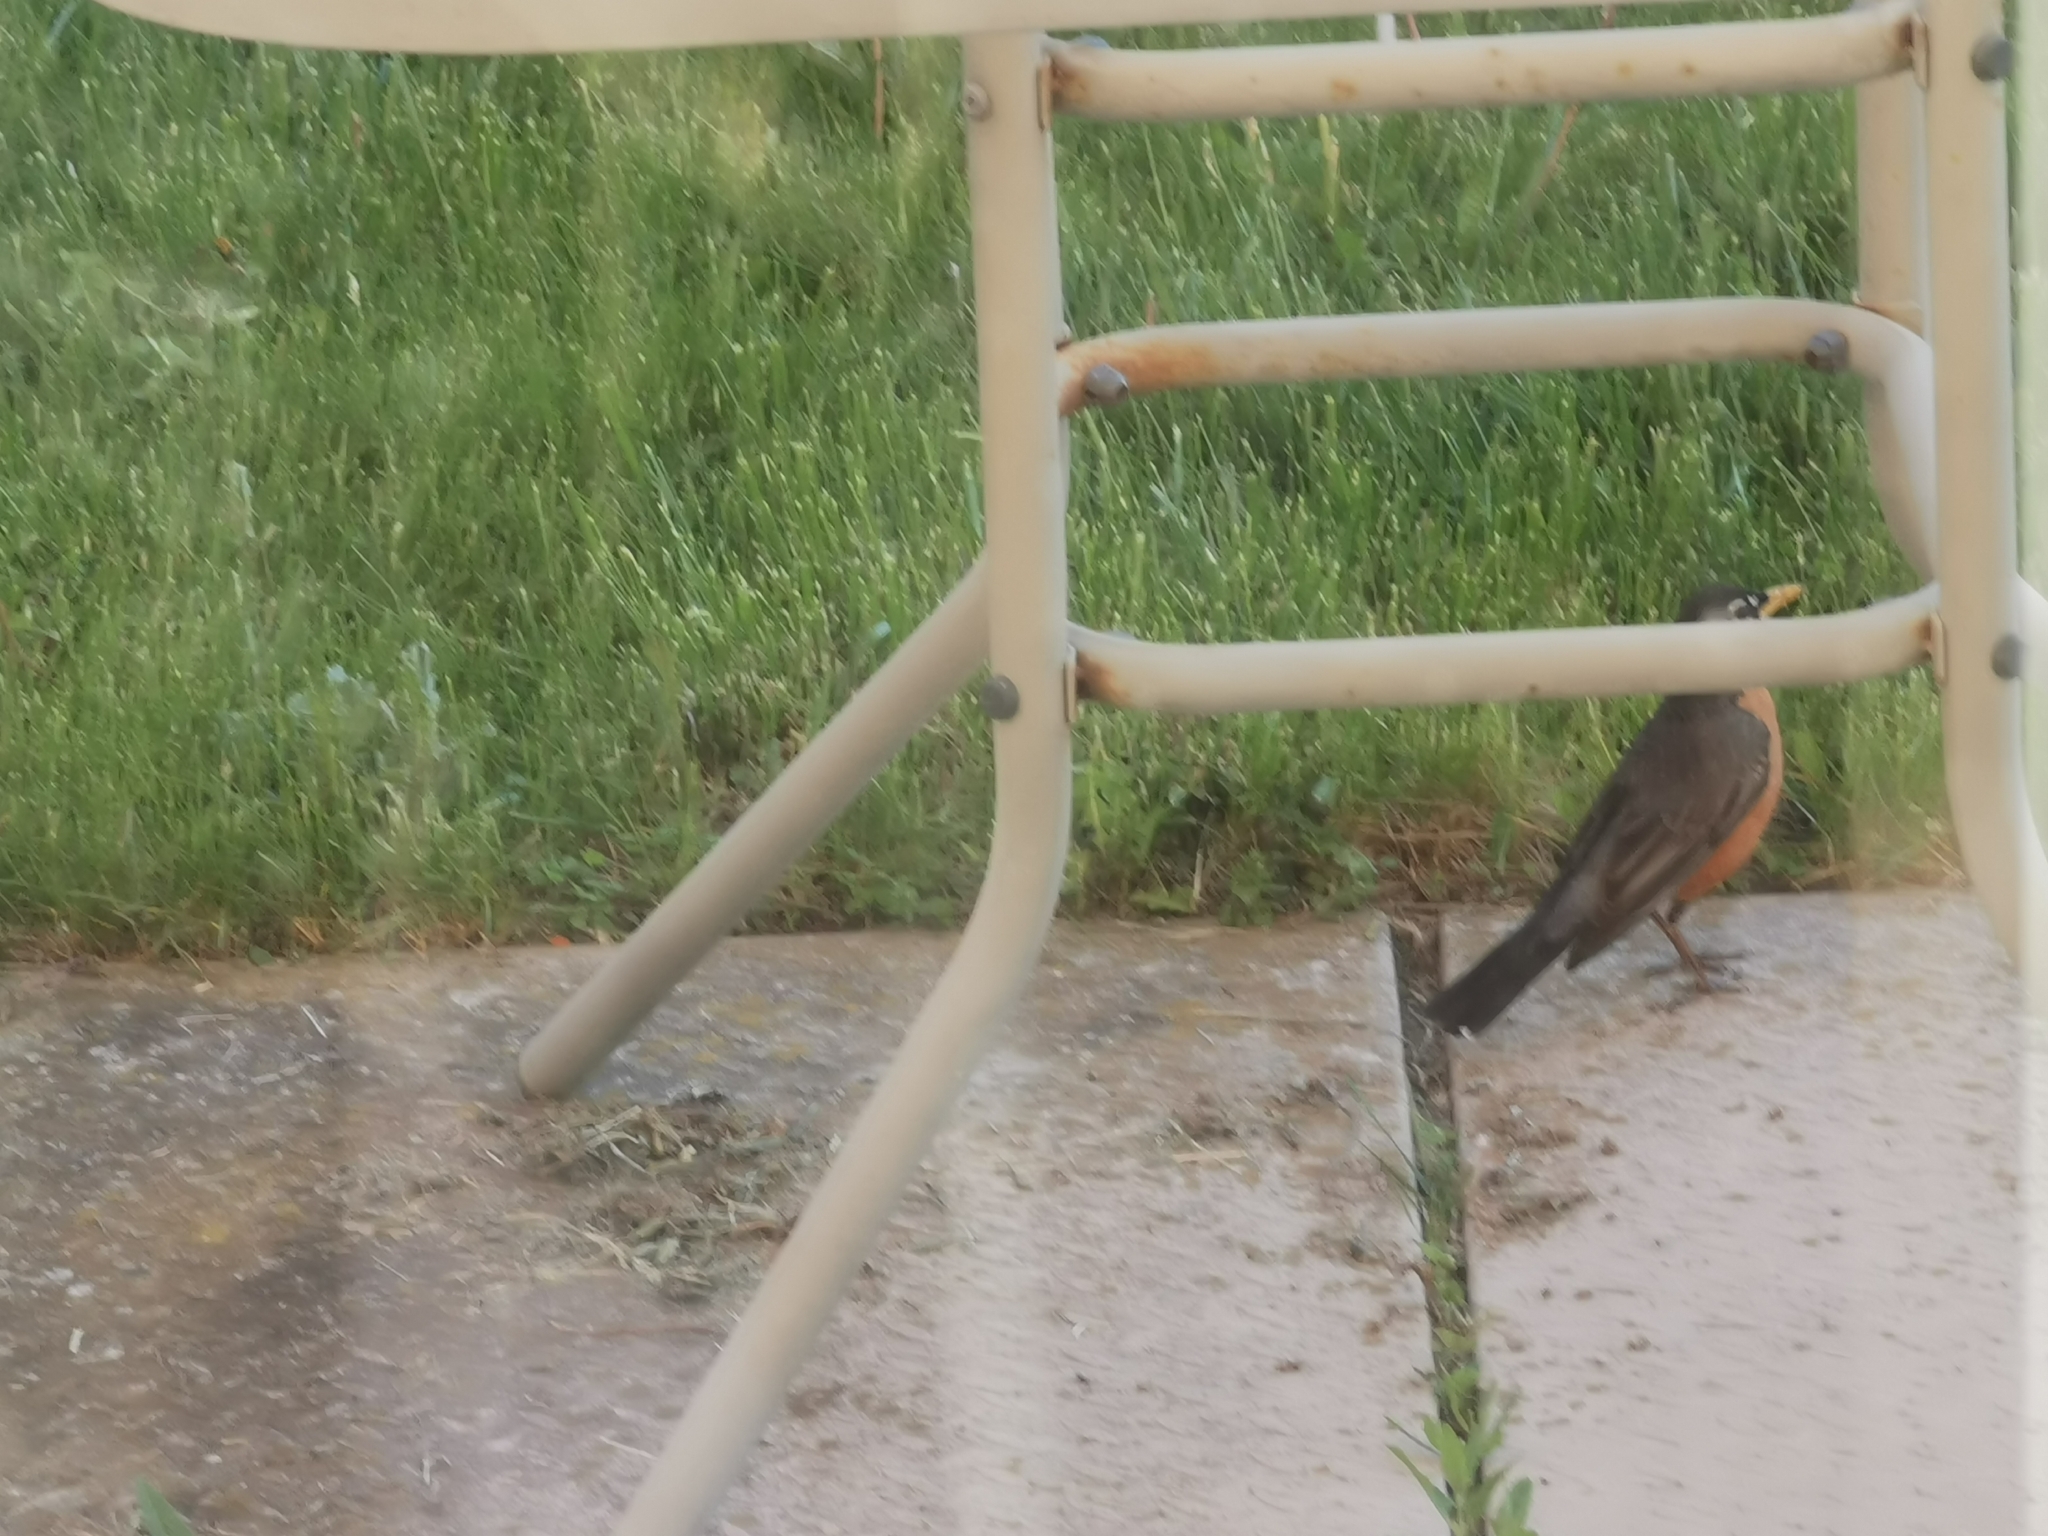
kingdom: Animalia
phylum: Chordata
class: Aves
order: Passeriformes
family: Turdidae
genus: Turdus
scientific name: Turdus migratorius
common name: American robin
